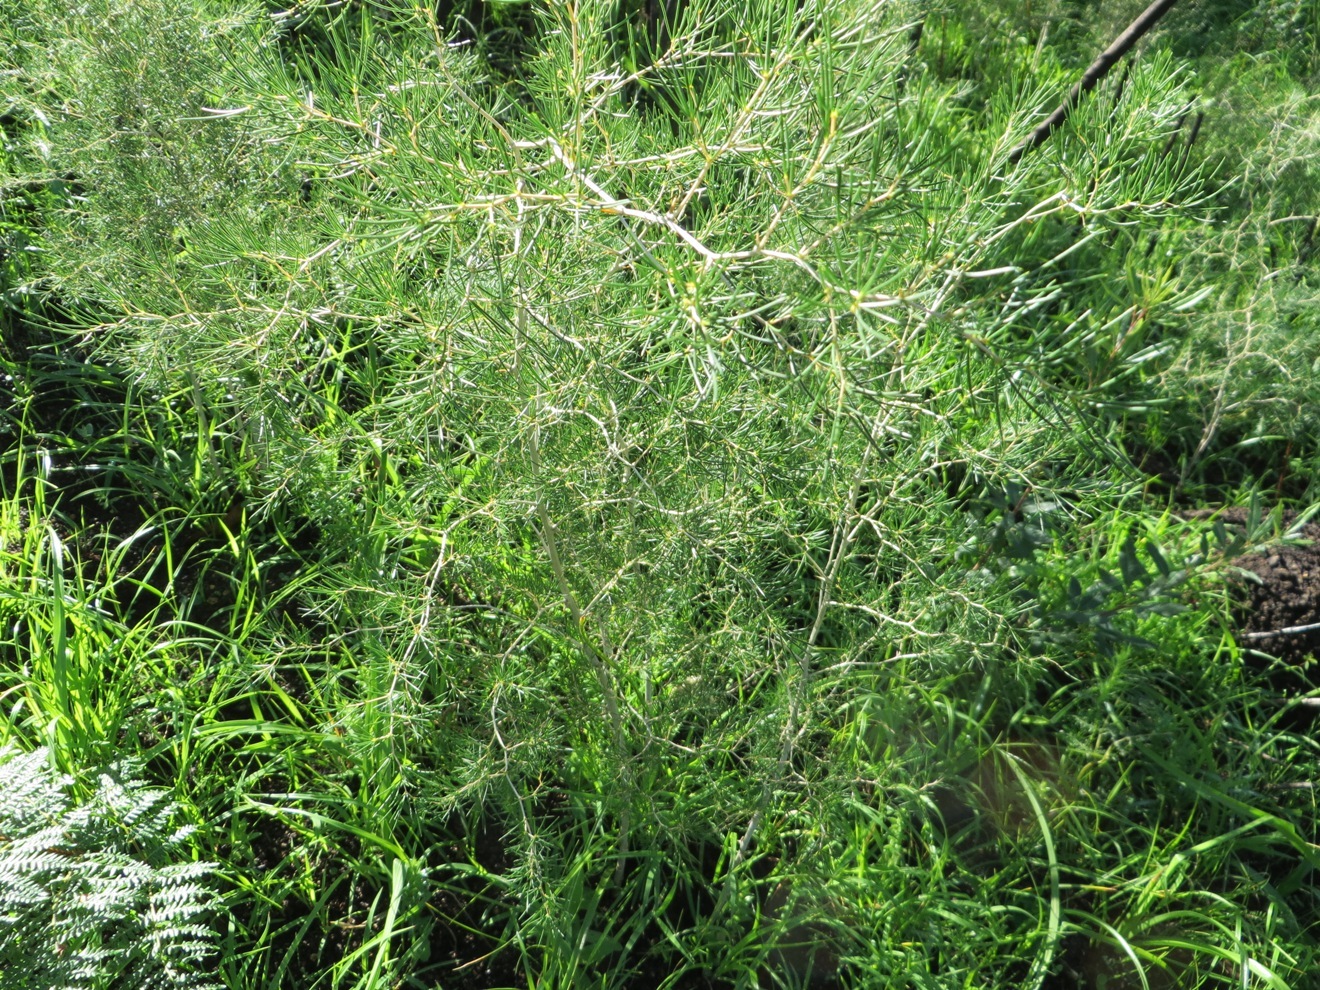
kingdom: Plantae
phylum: Tracheophyta
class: Liliopsida
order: Asparagales
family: Asparagaceae
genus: Asparagus
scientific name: Asparagus retrofractus
